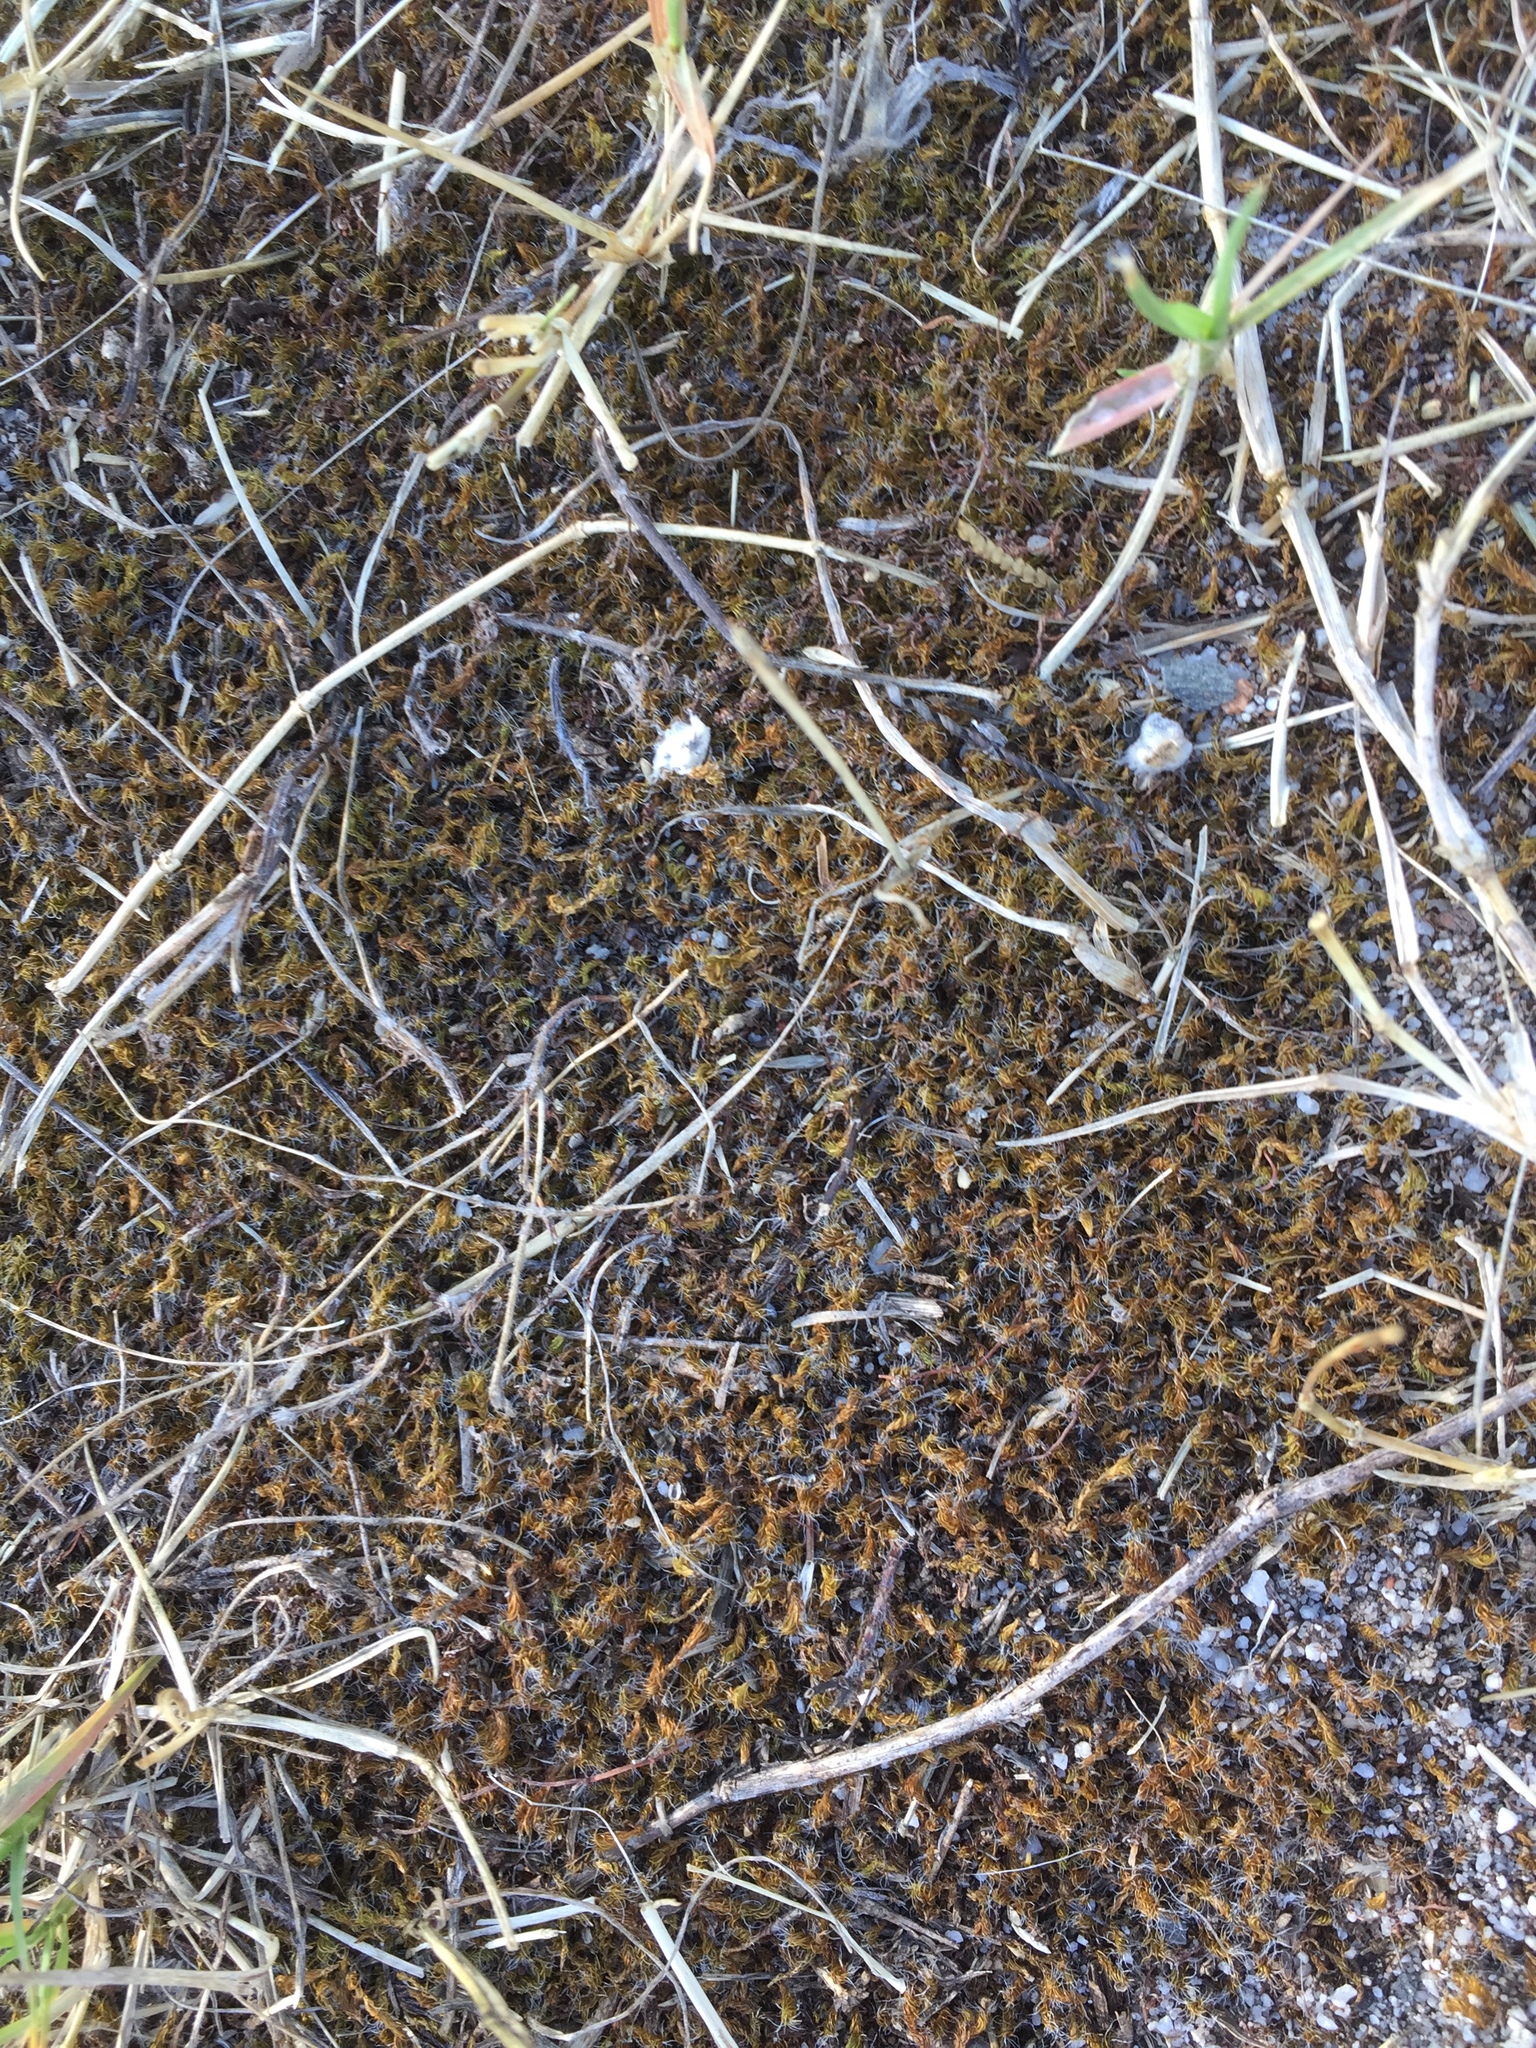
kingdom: Plantae
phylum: Bryophyta
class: Bryopsida
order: Pottiales
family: Pottiaceae
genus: Pseudocrossidium
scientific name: Pseudocrossidium crinitum
